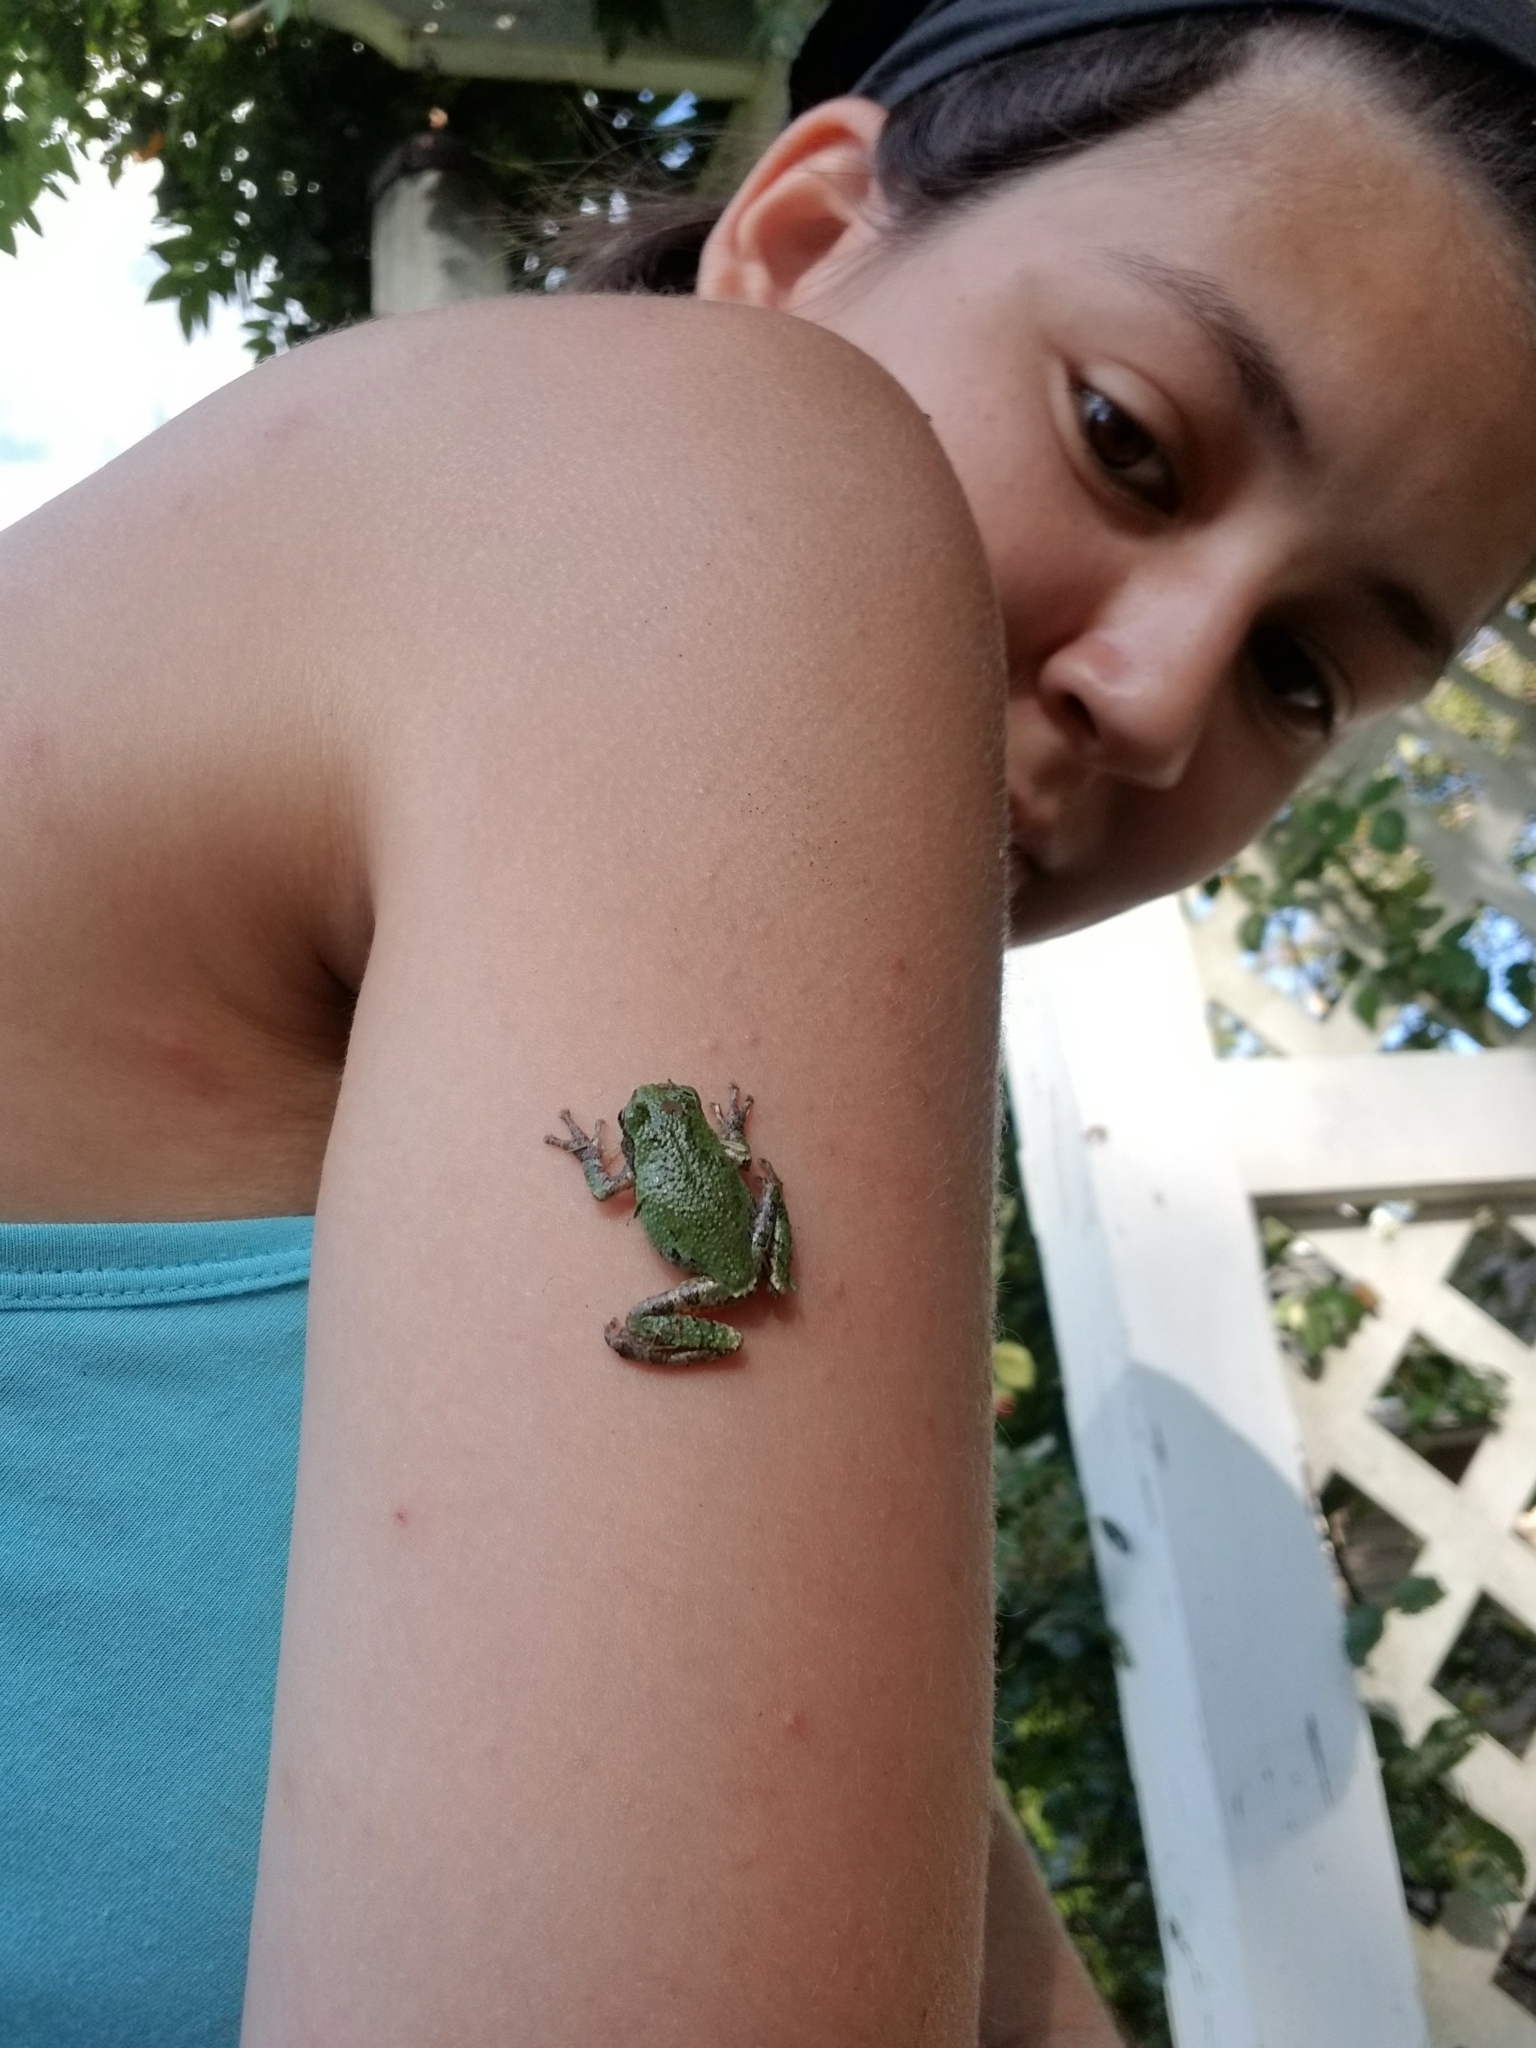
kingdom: Animalia
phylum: Chordata
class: Amphibia
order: Anura
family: Hylidae
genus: Dryophytes
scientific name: Dryophytes chrysoscelis
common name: Cope's gray treefrog
